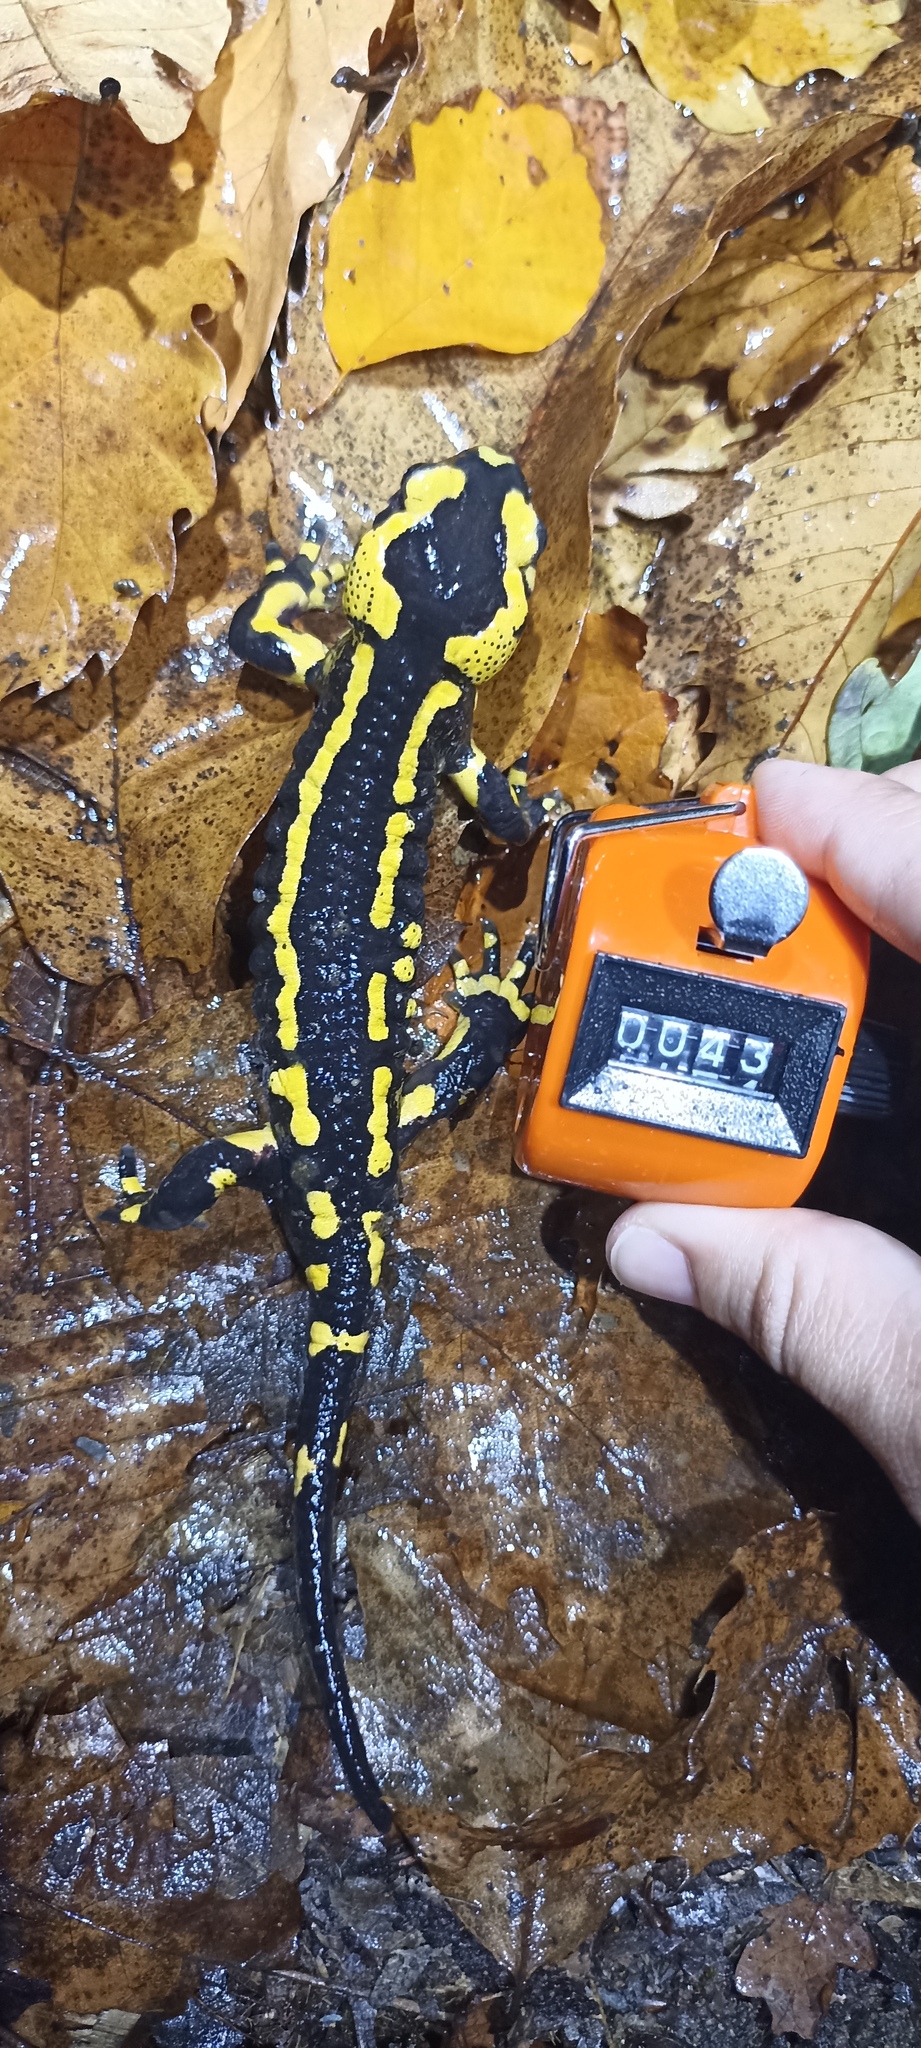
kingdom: Animalia
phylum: Chordata
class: Amphibia
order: Caudata
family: Salamandridae
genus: Salamandra
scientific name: Salamandra salamandra
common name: Fire salamander
